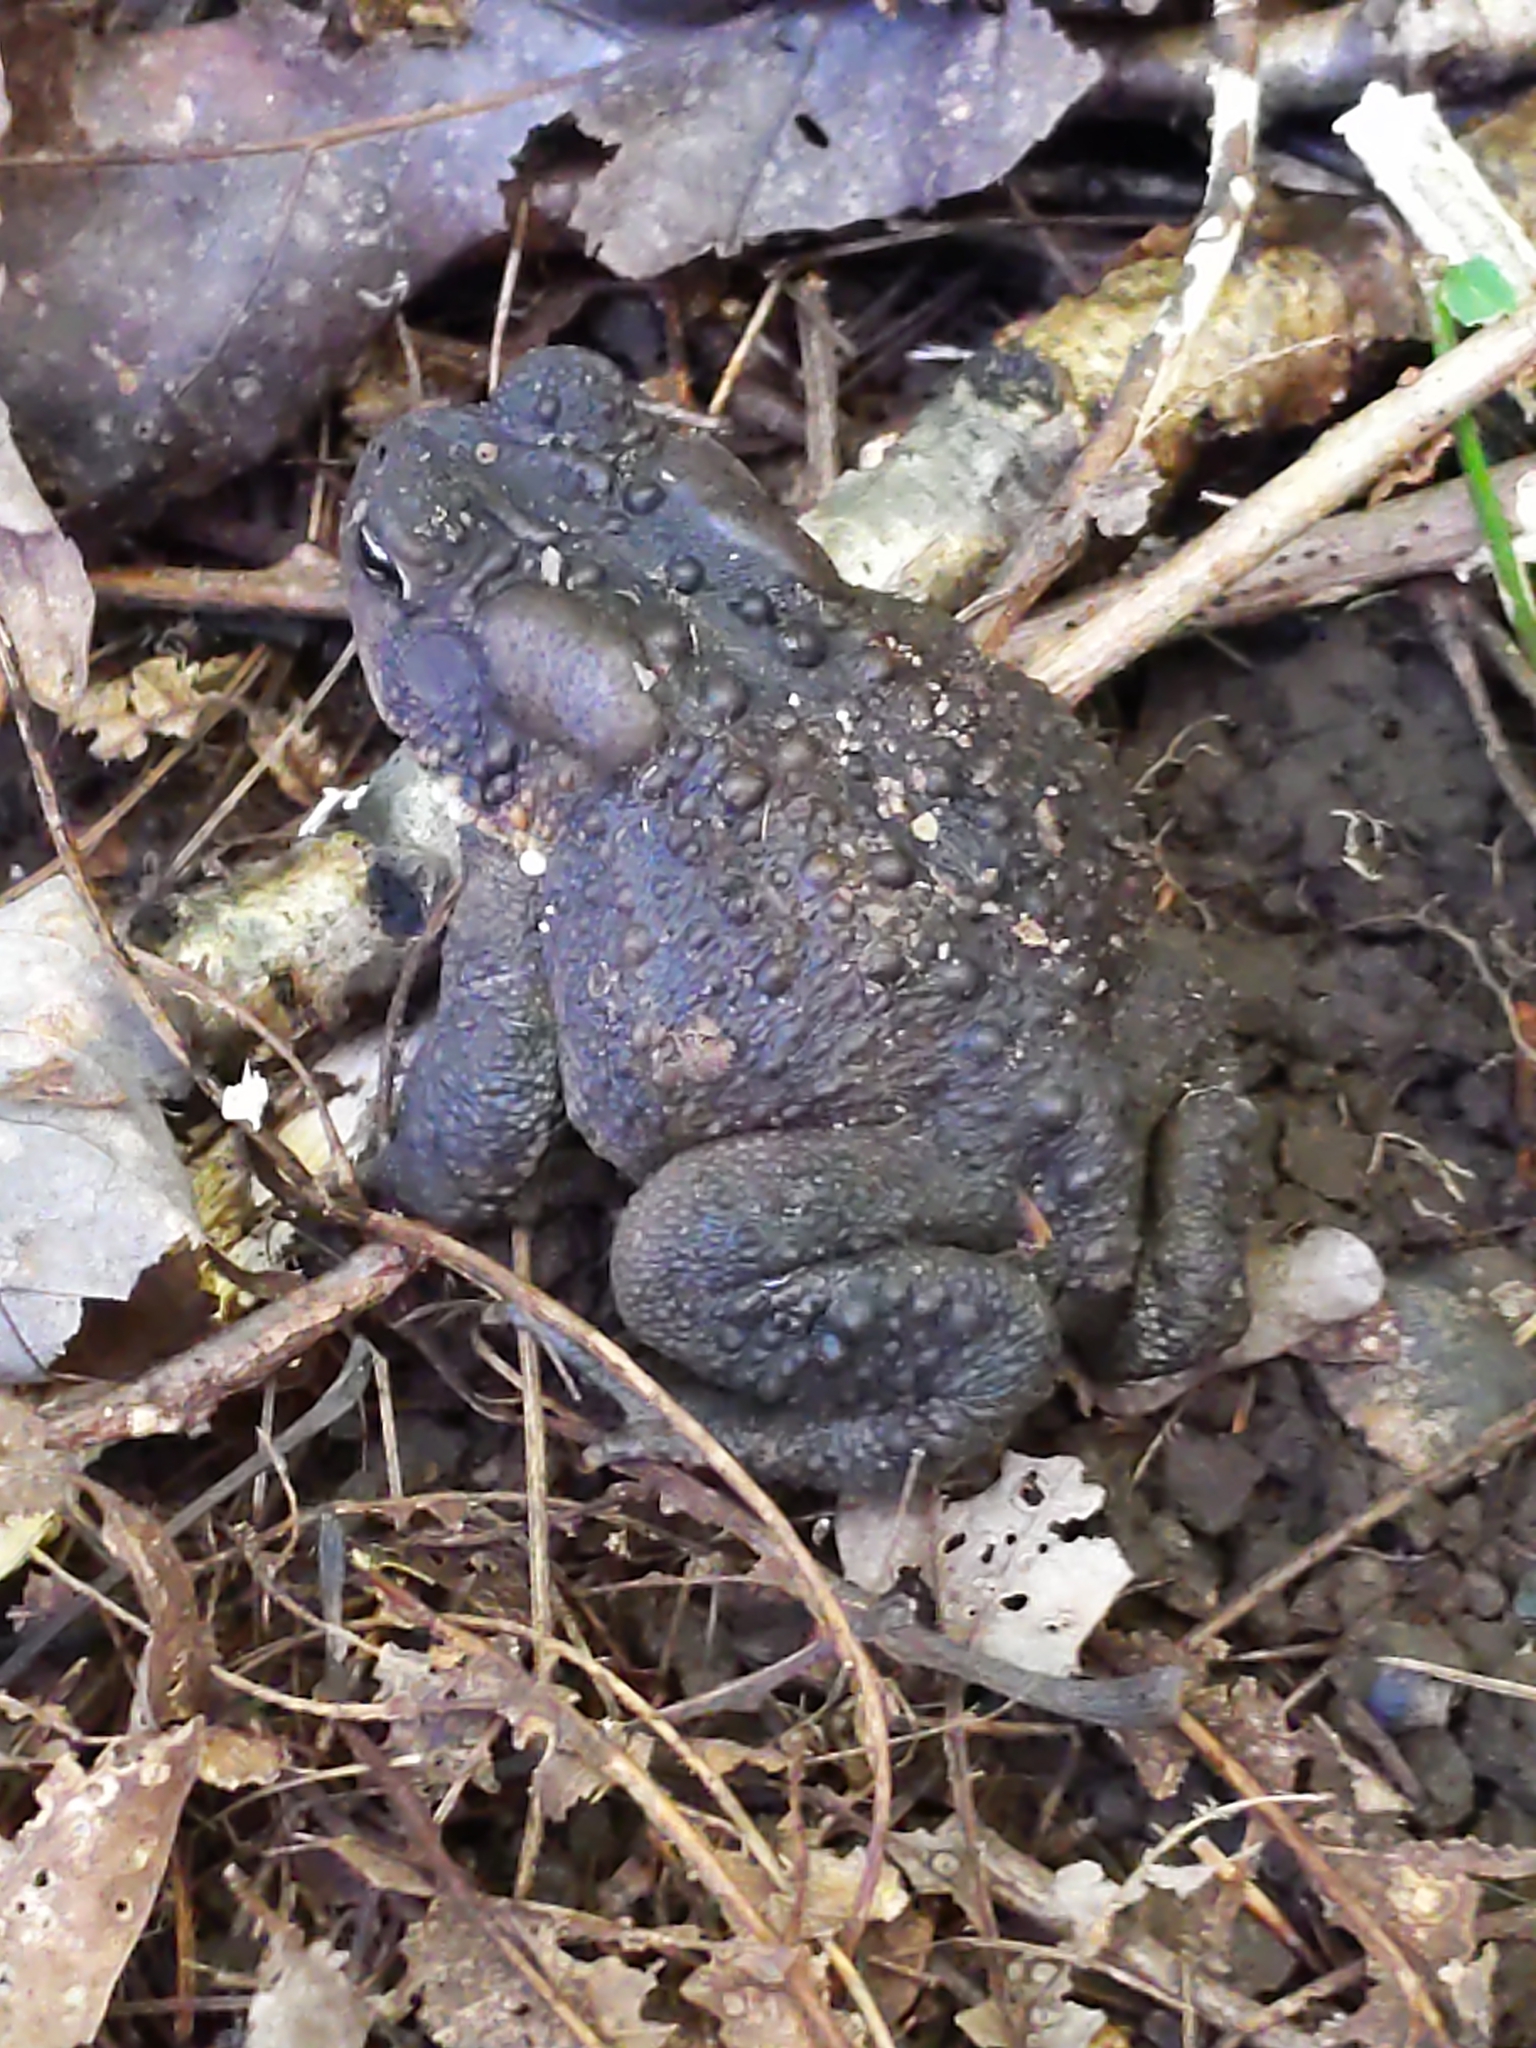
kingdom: Animalia
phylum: Chordata
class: Amphibia
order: Anura
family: Bufonidae
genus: Anaxyrus
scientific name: Anaxyrus americanus
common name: American toad
